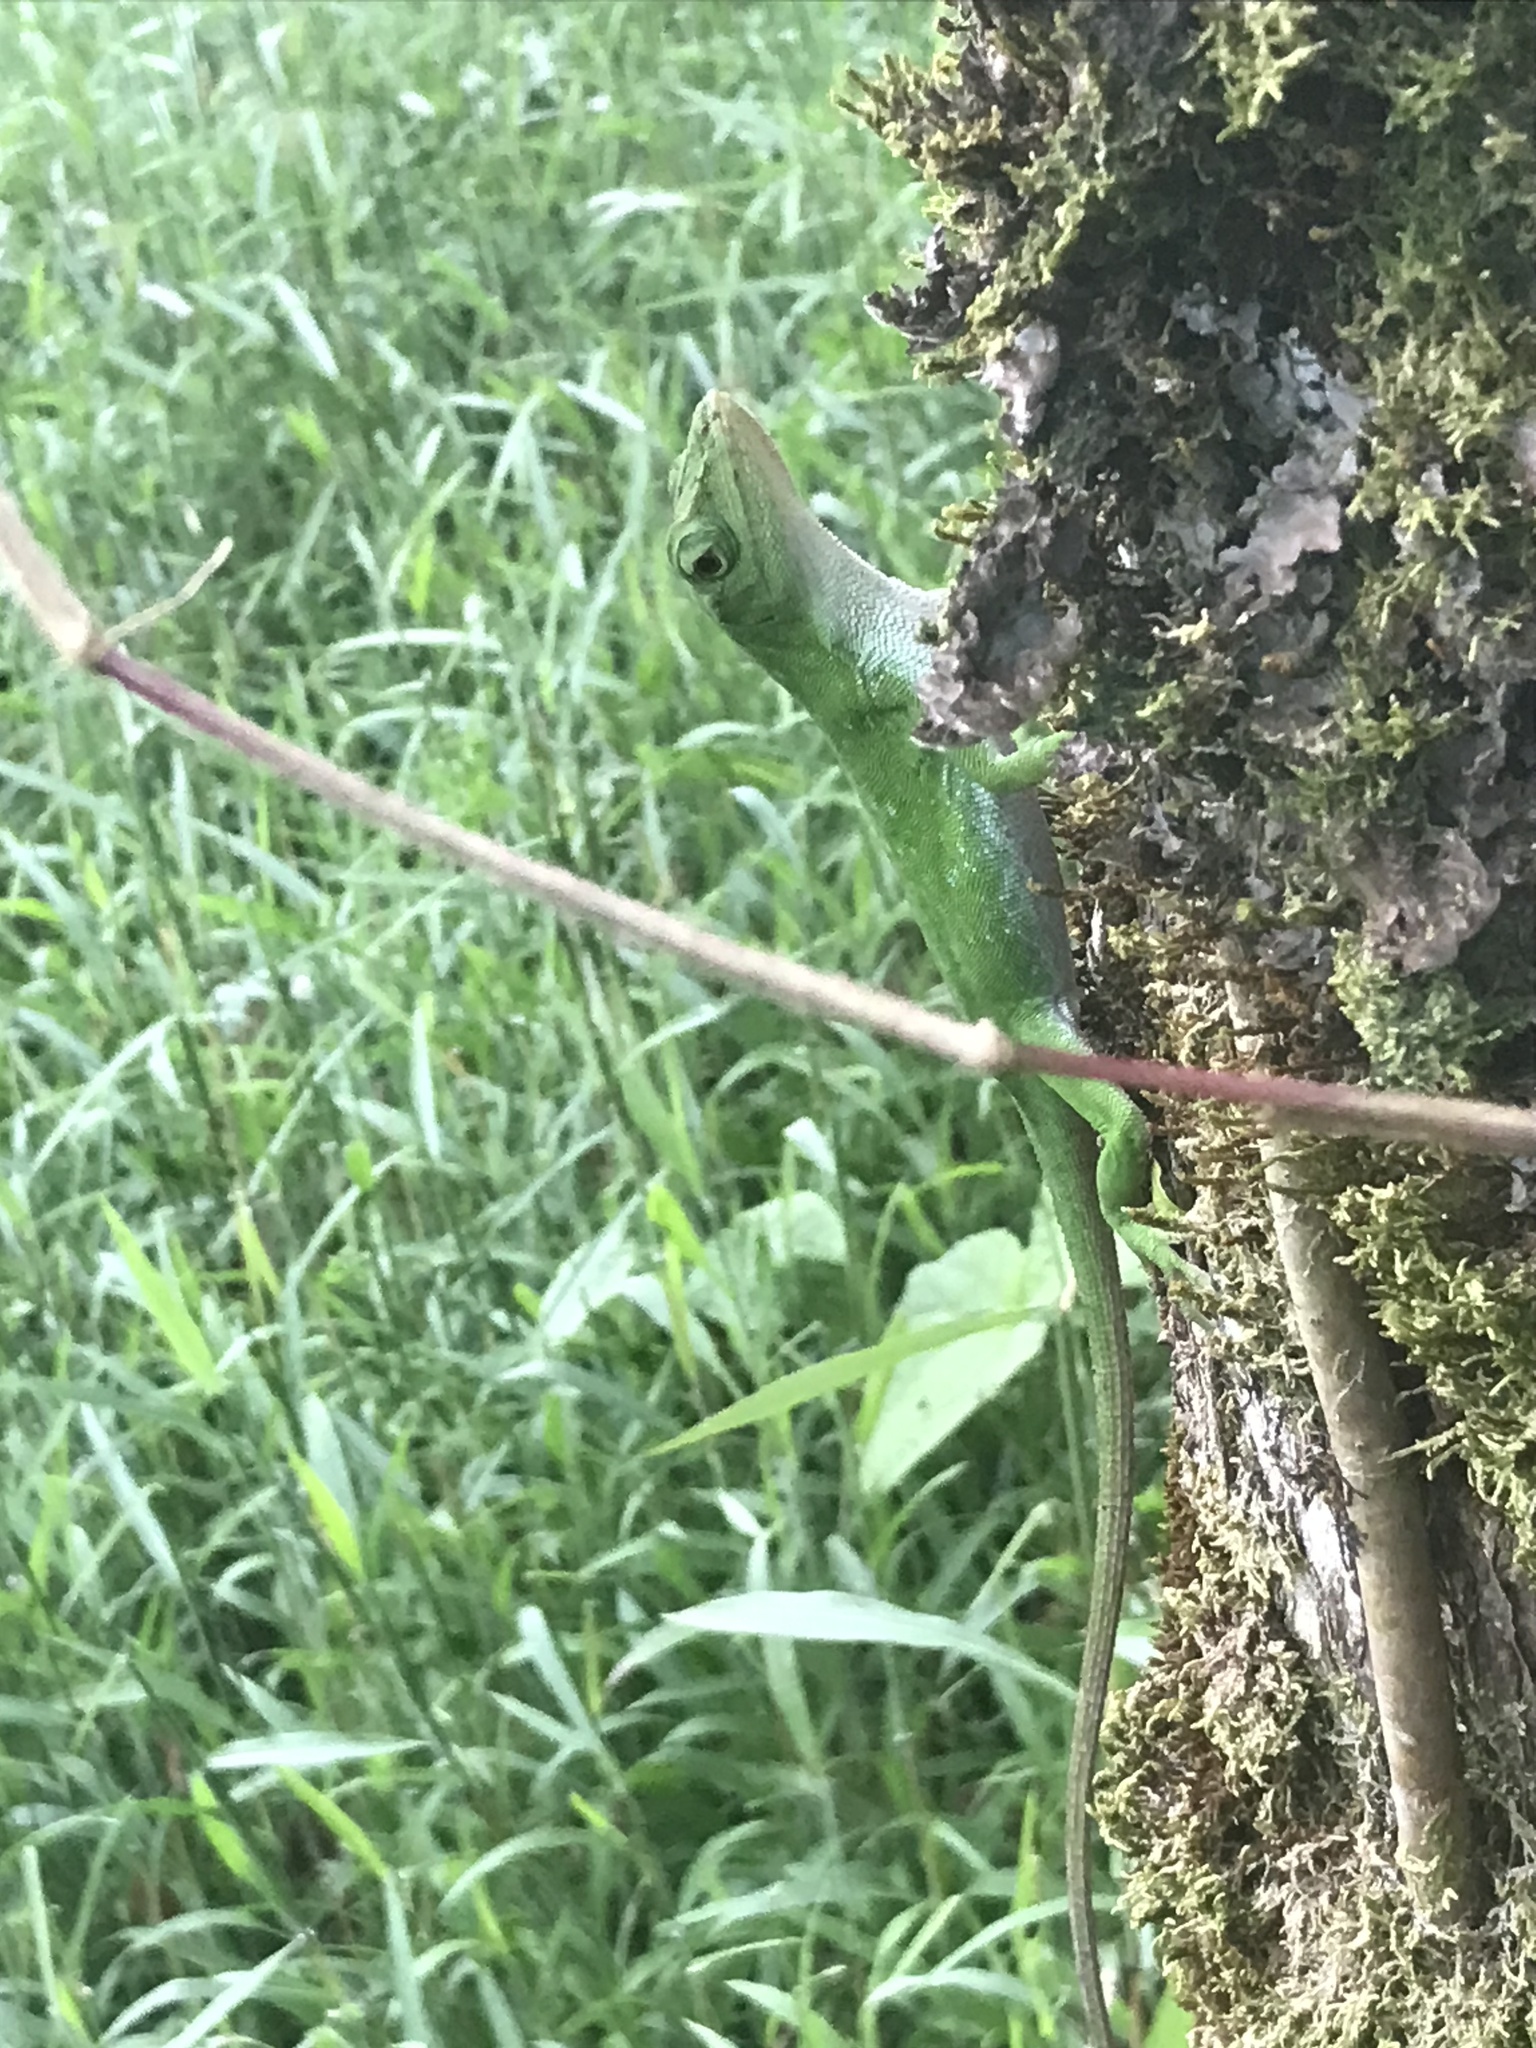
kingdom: Animalia
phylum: Chordata
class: Squamata
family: Dactyloidae
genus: Anolis
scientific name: Anolis biporcatus
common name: Giant green anole
